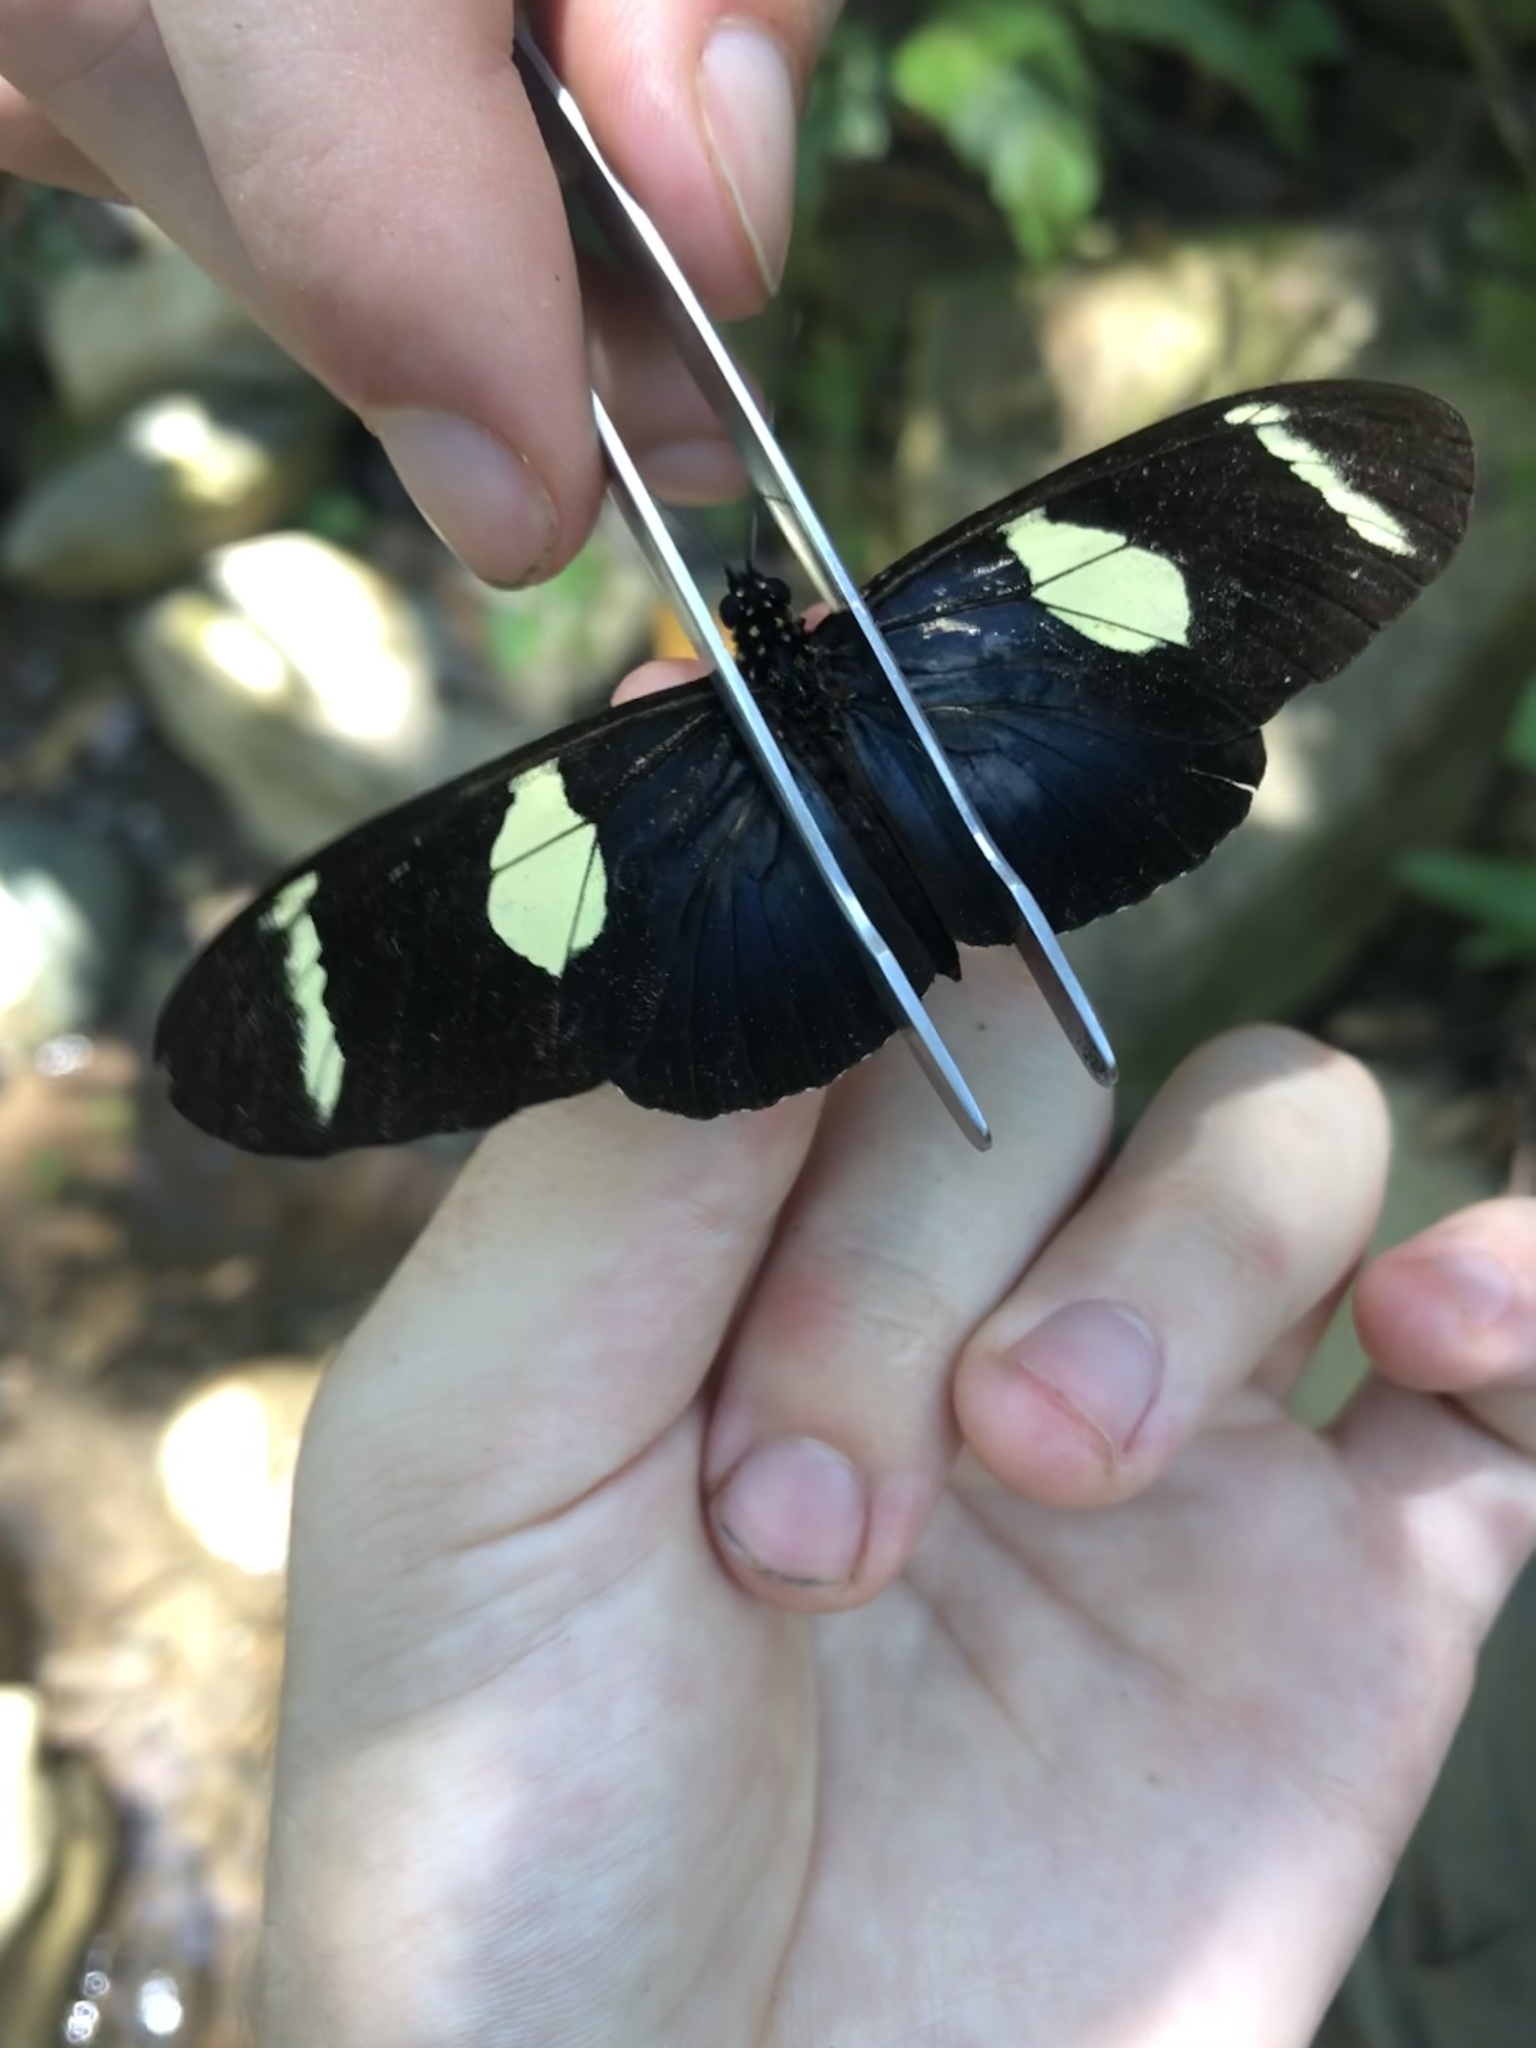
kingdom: Animalia
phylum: Arthropoda
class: Insecta
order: Lepidoptera
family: Nymphalidae
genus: Heliconius
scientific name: Heliconius wallacei
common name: Wallace's longwing
